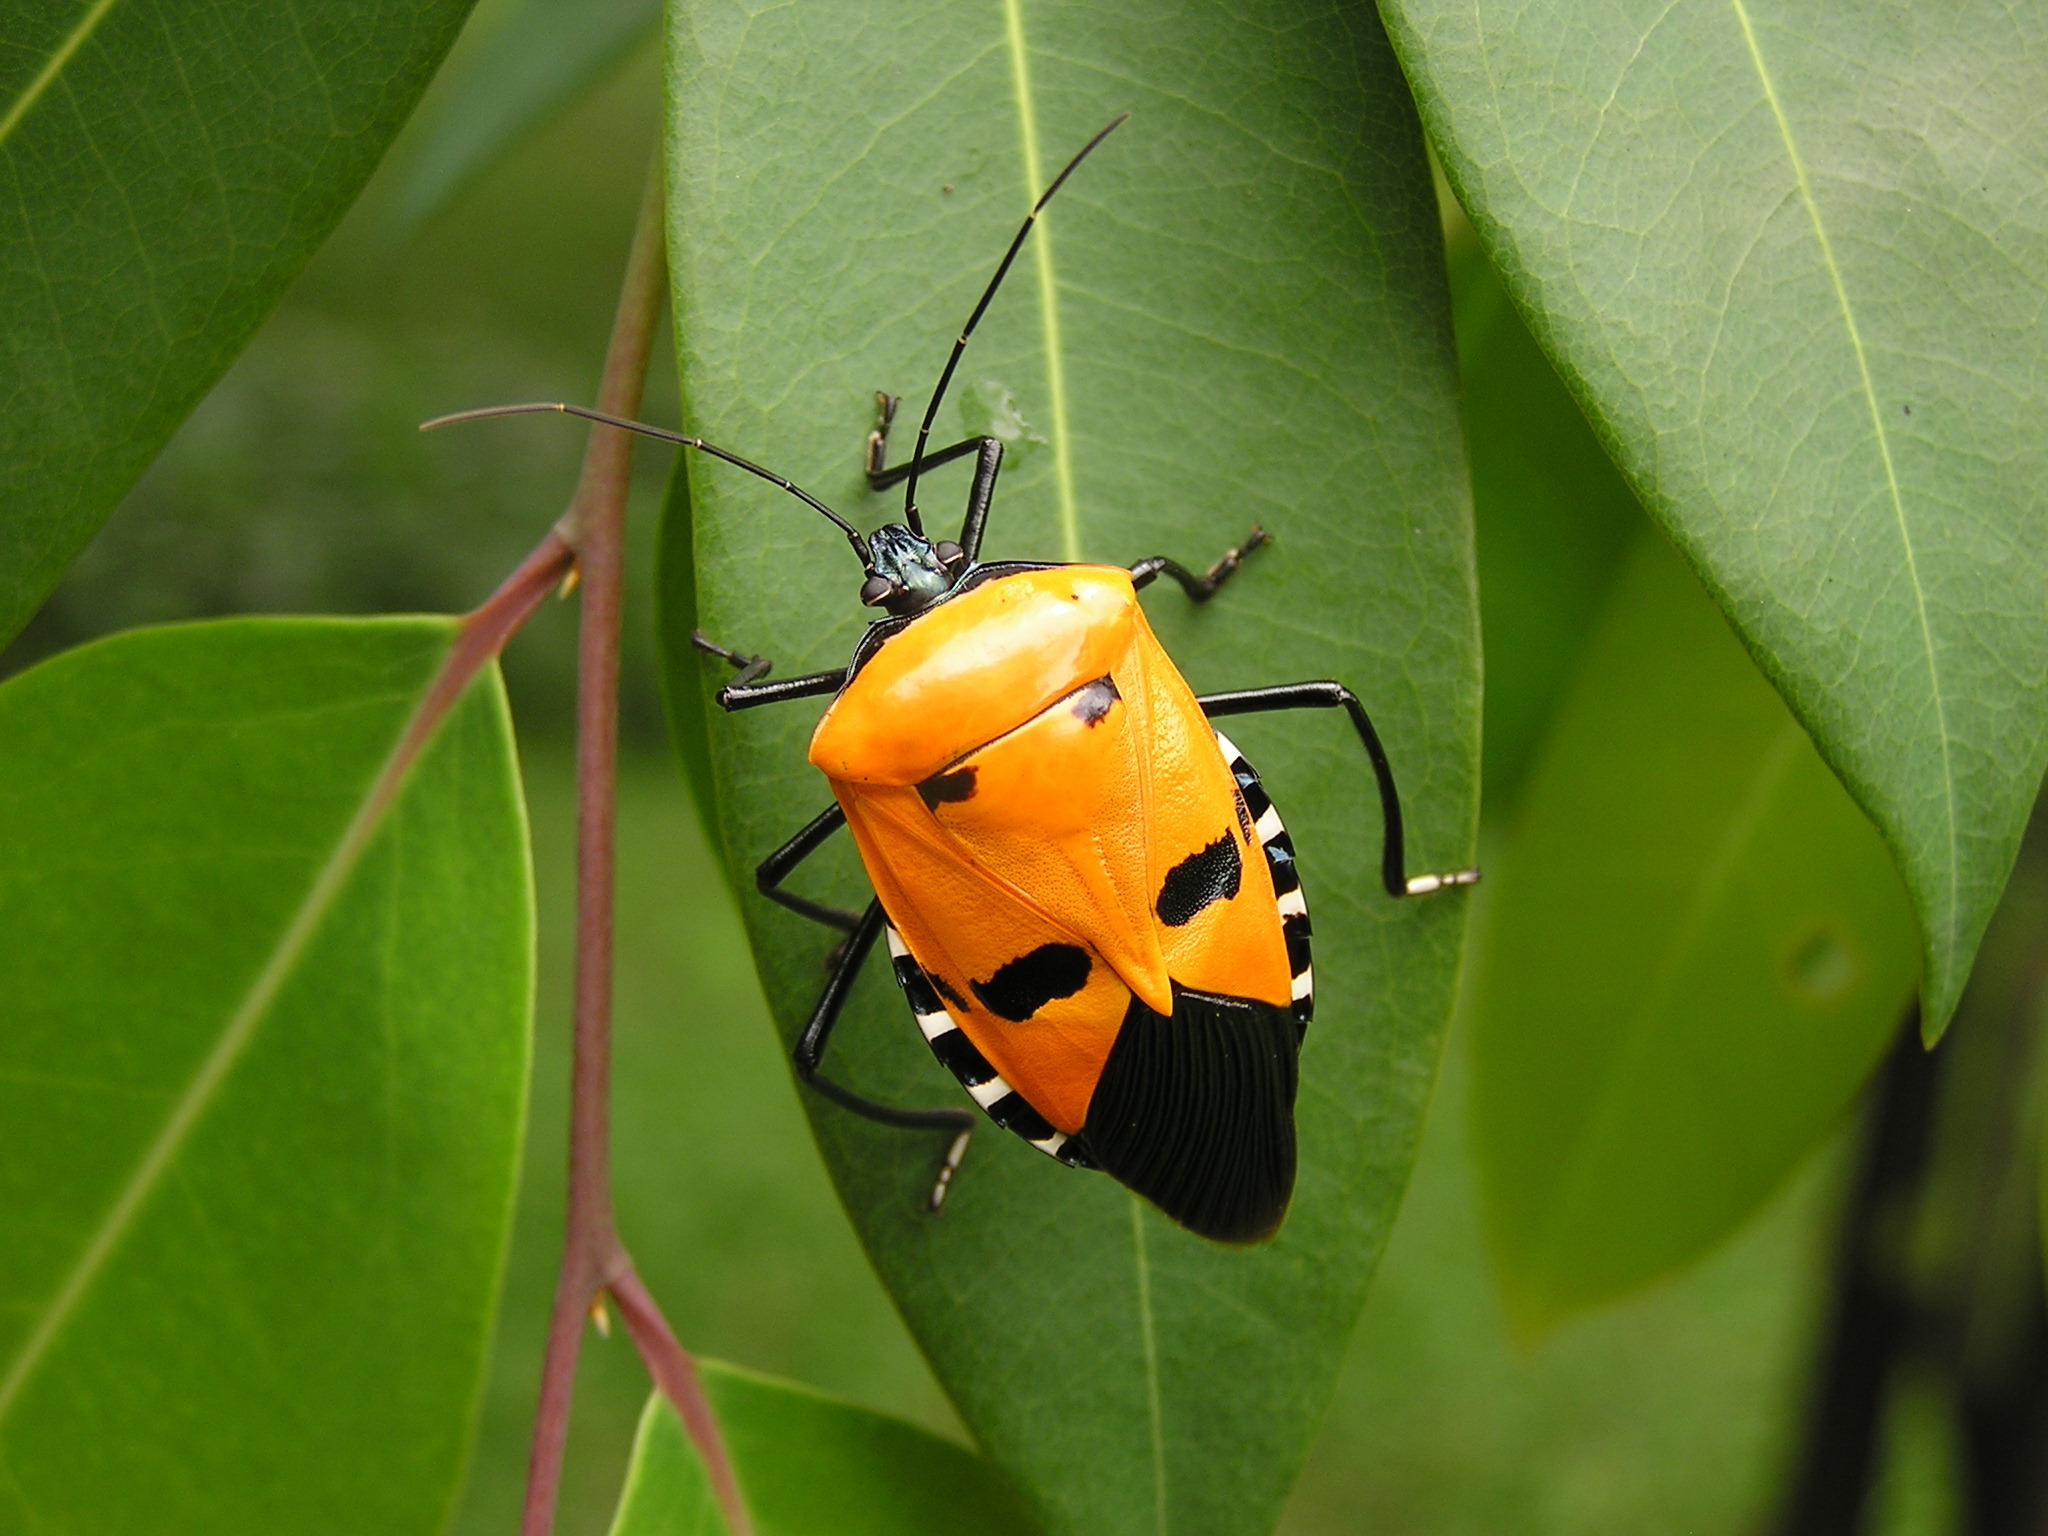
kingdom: Animalia
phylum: Arthropoda
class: Insecta
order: Hemiptera
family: Pentatomidae
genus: Catacanthus
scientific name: Catacanthus incarnatus
